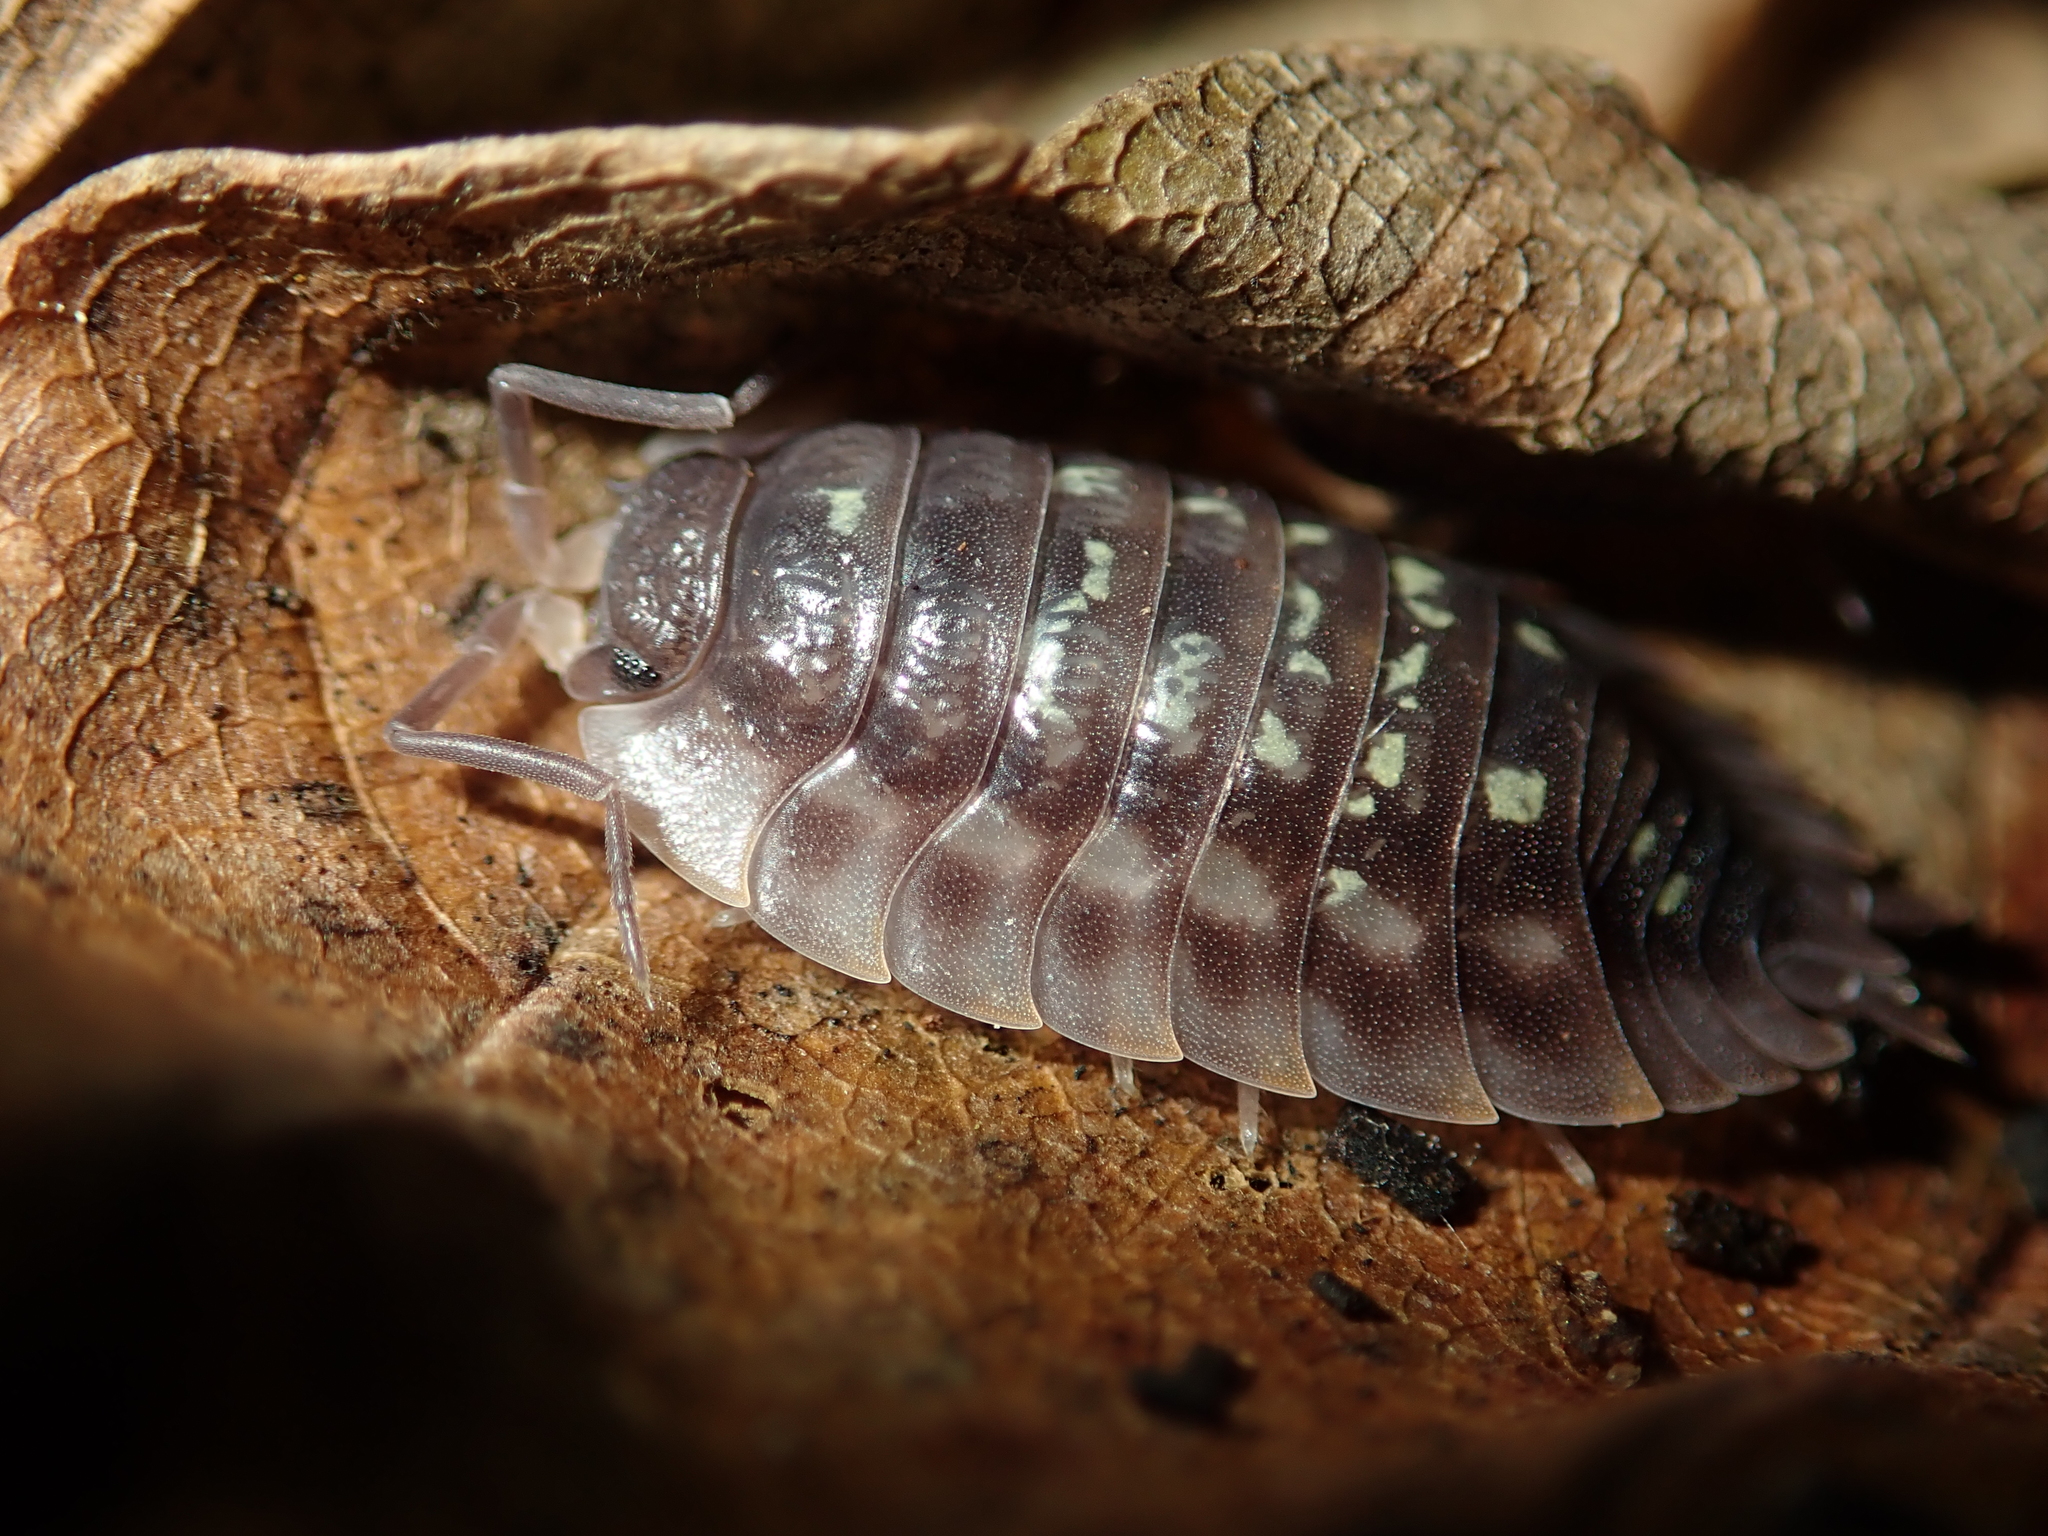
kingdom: Animalia
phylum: Arthropoda
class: Malacostraca
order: Isopoda
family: Oniscidae
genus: Oniscus
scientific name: Oniscus asellus
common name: Common shiny woodlouse
